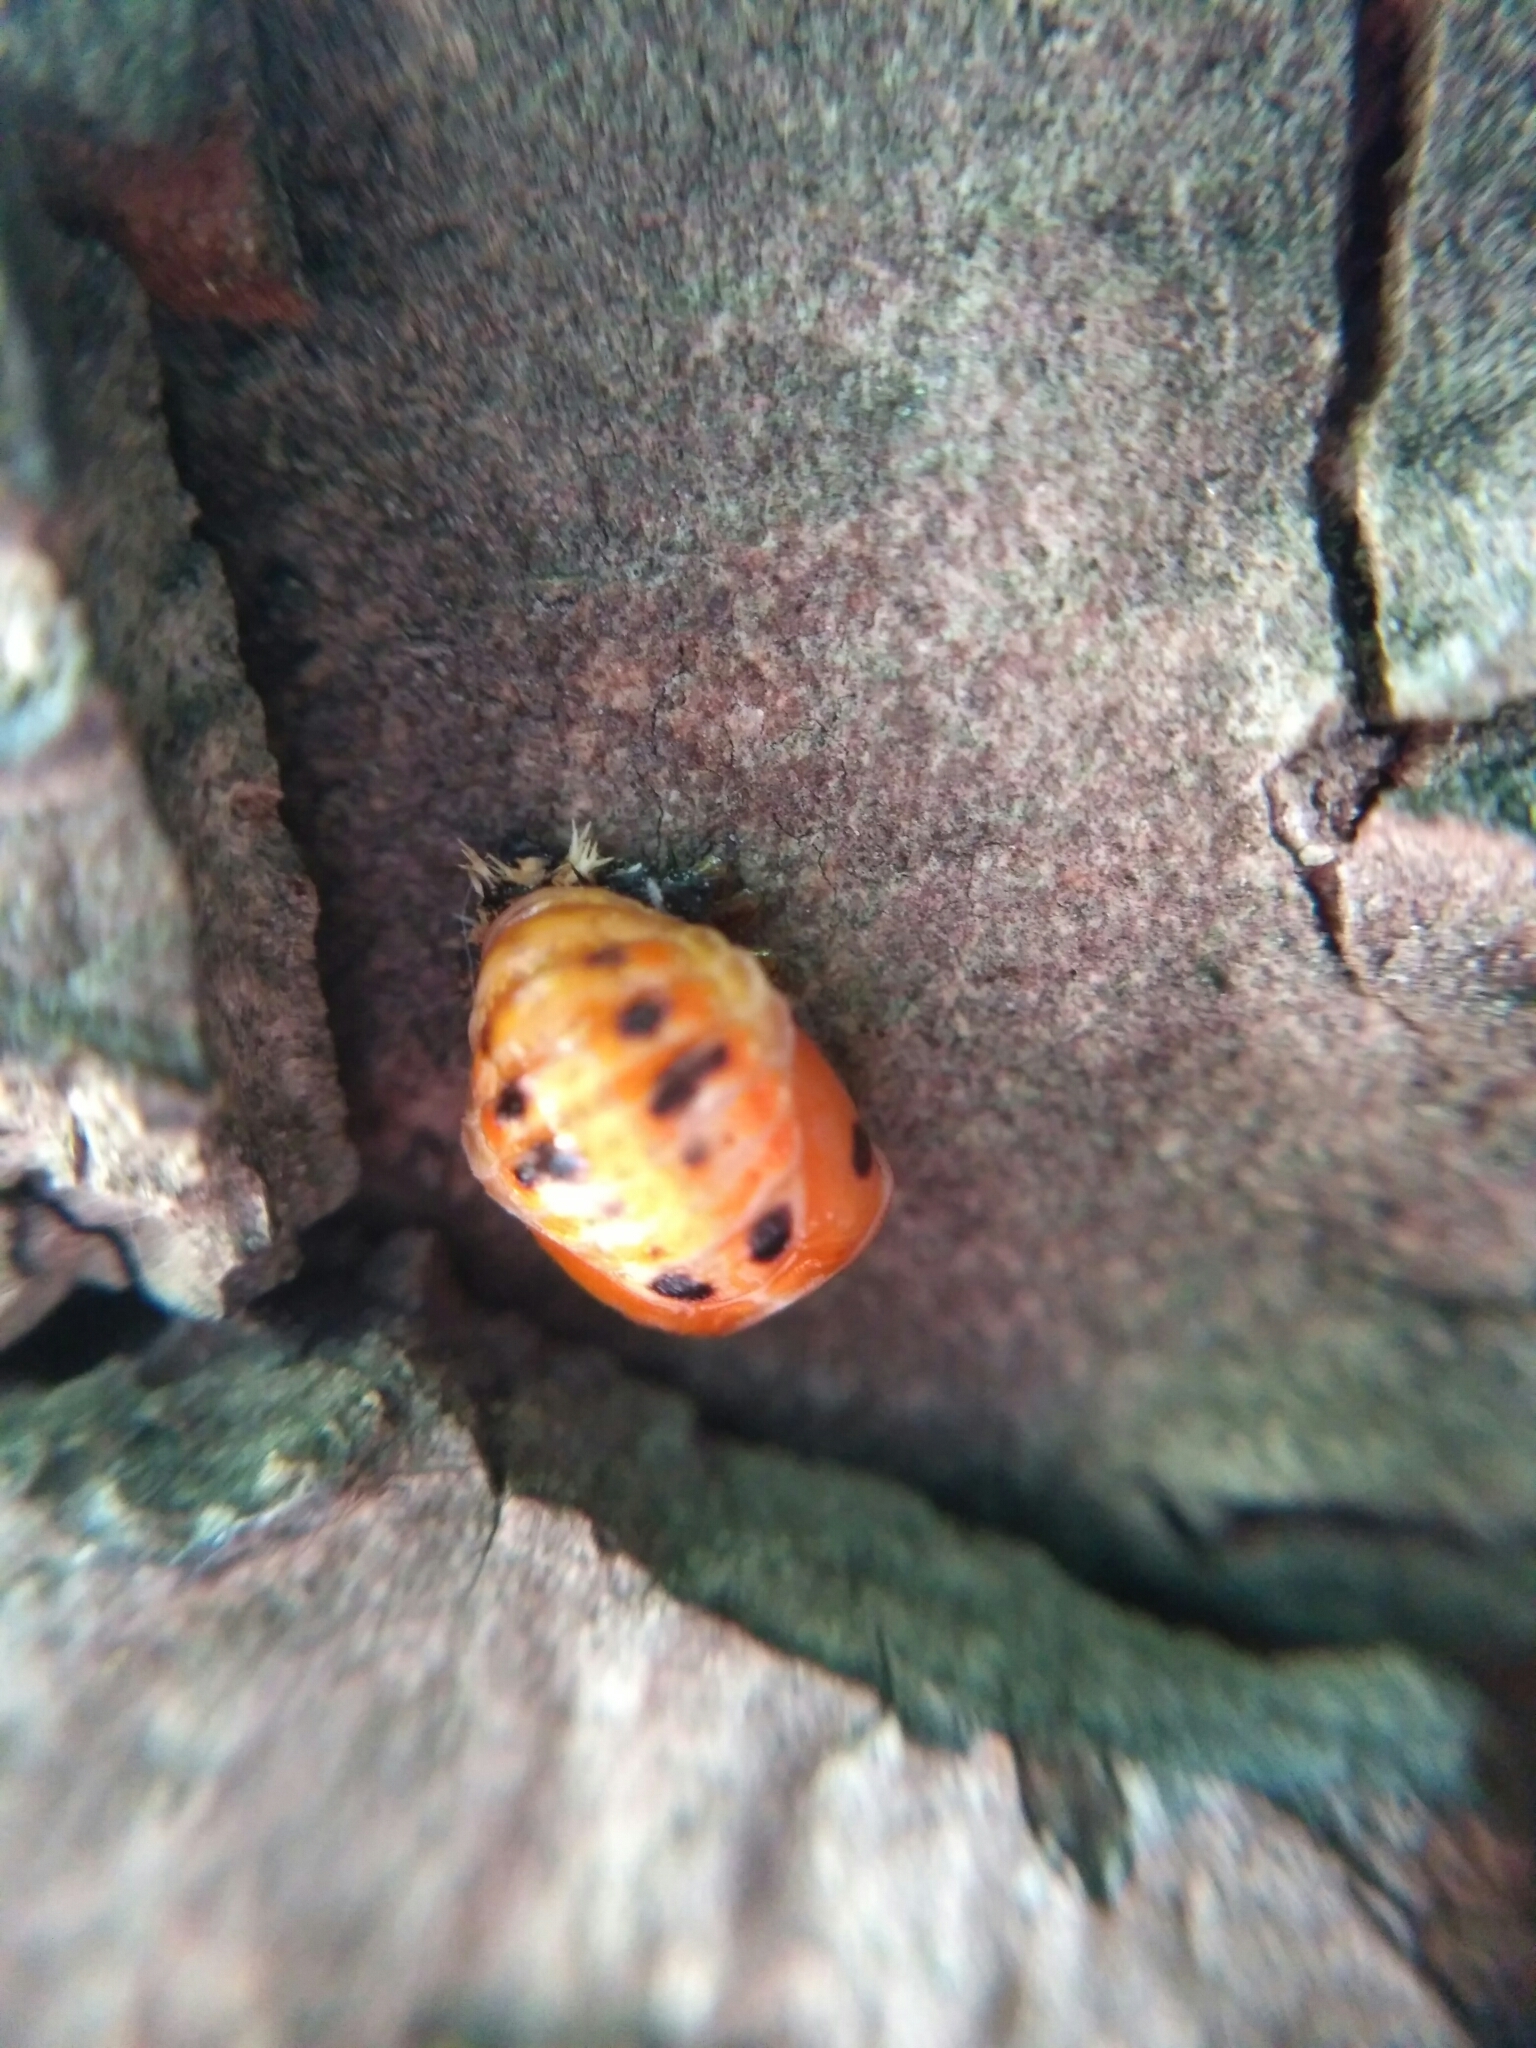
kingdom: Animalia
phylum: Arthropoda
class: Insecta
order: Coleoptera
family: Coccinellidae
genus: Harmonia
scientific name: Harmonia axyridis
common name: Harlequin ladybird
